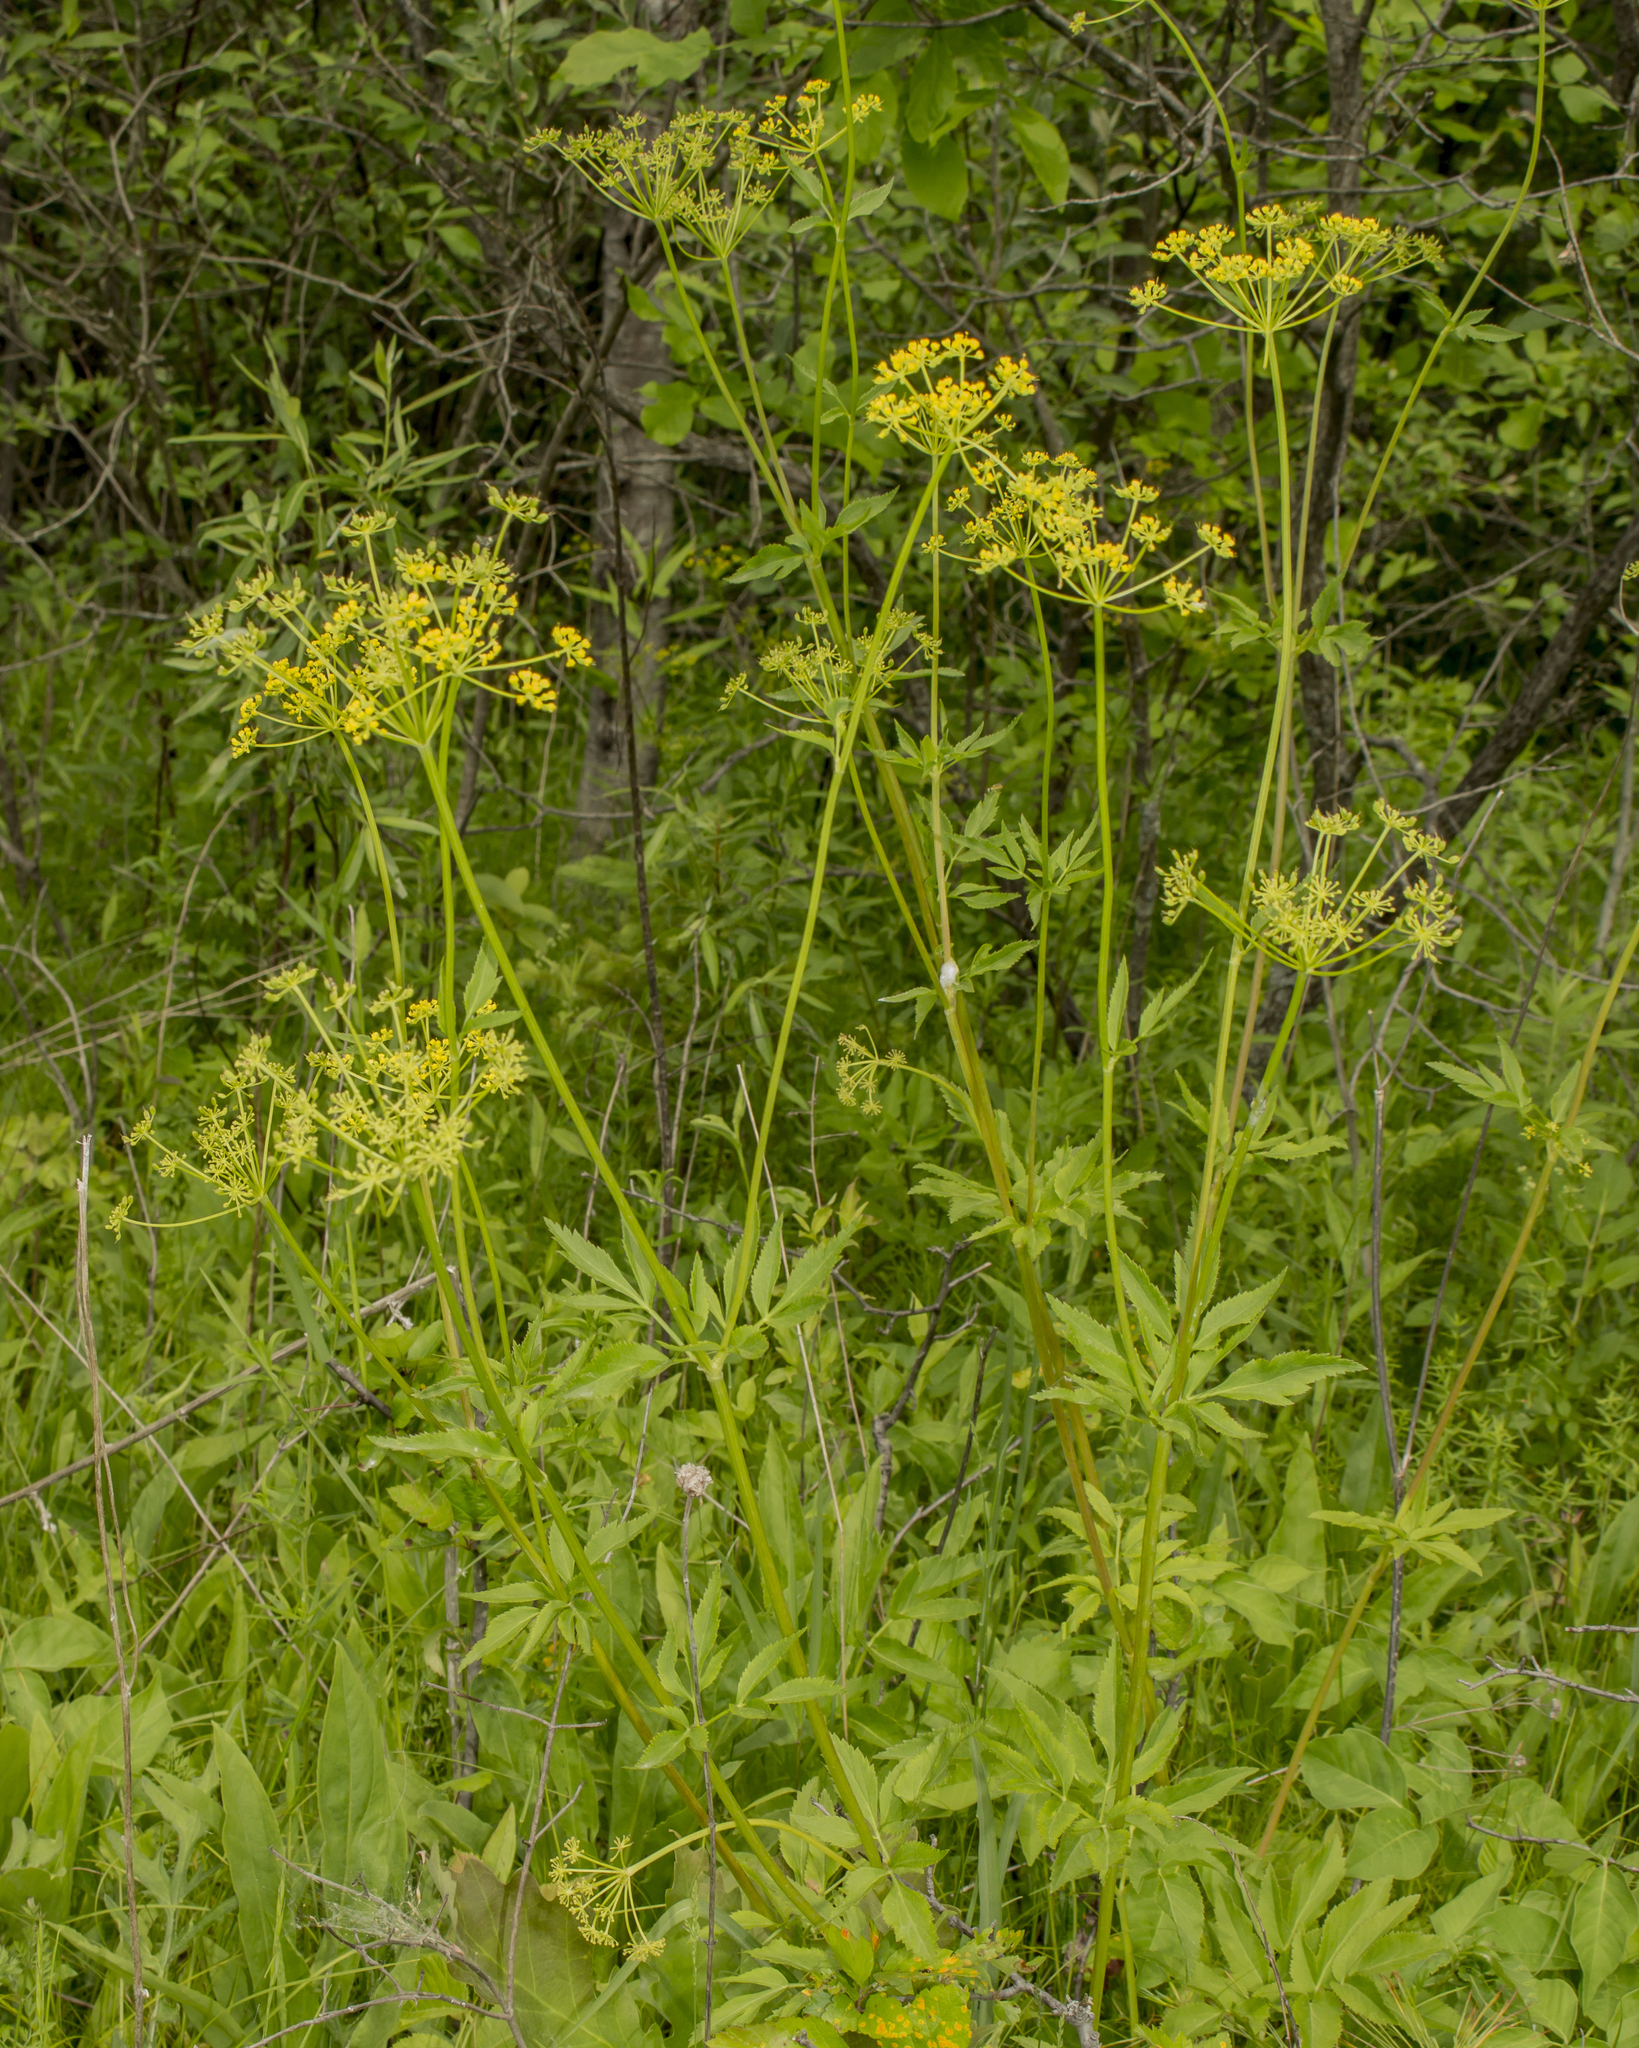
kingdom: Plantae
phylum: Tracheophyta
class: Magnoliopsida
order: Apiales
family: Apiaceae
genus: Zizia
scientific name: Zizia aurea
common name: Golden alexanders
